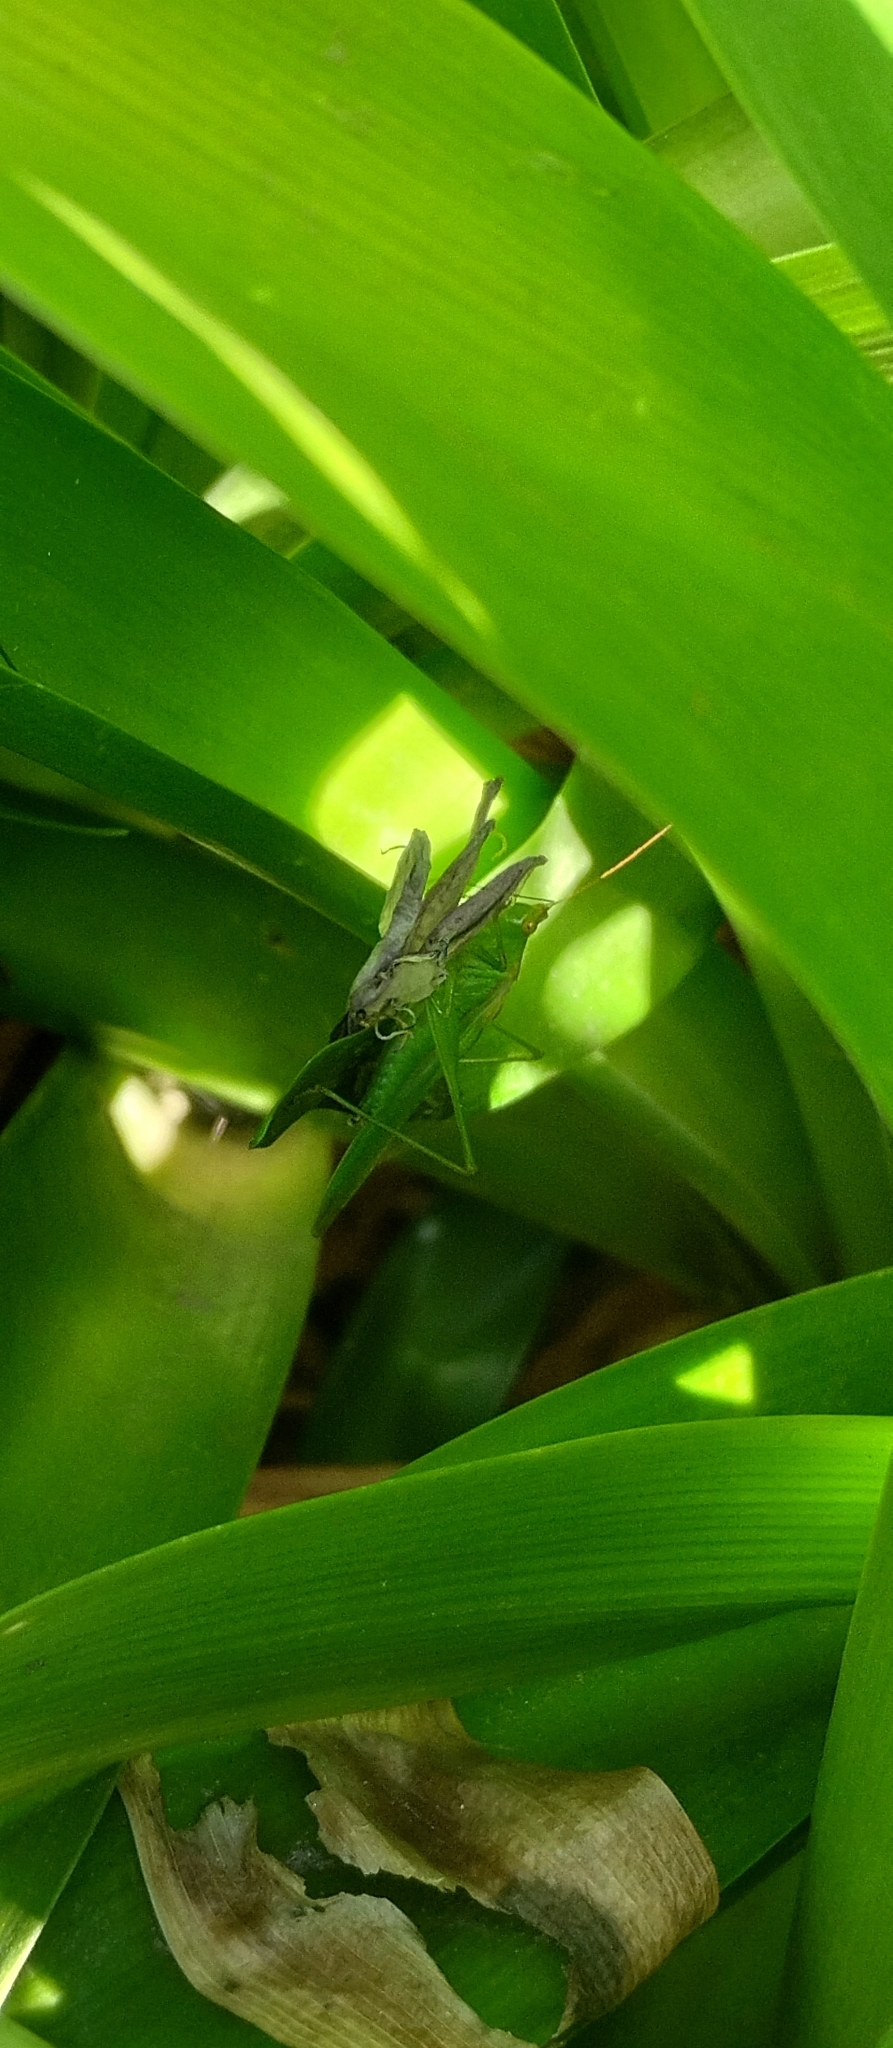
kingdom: Animalia
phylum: Arthropoda
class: Insecta
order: Orthoptera
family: Tettigoniidae
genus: Conocephalus
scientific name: Conocephalus longipes
